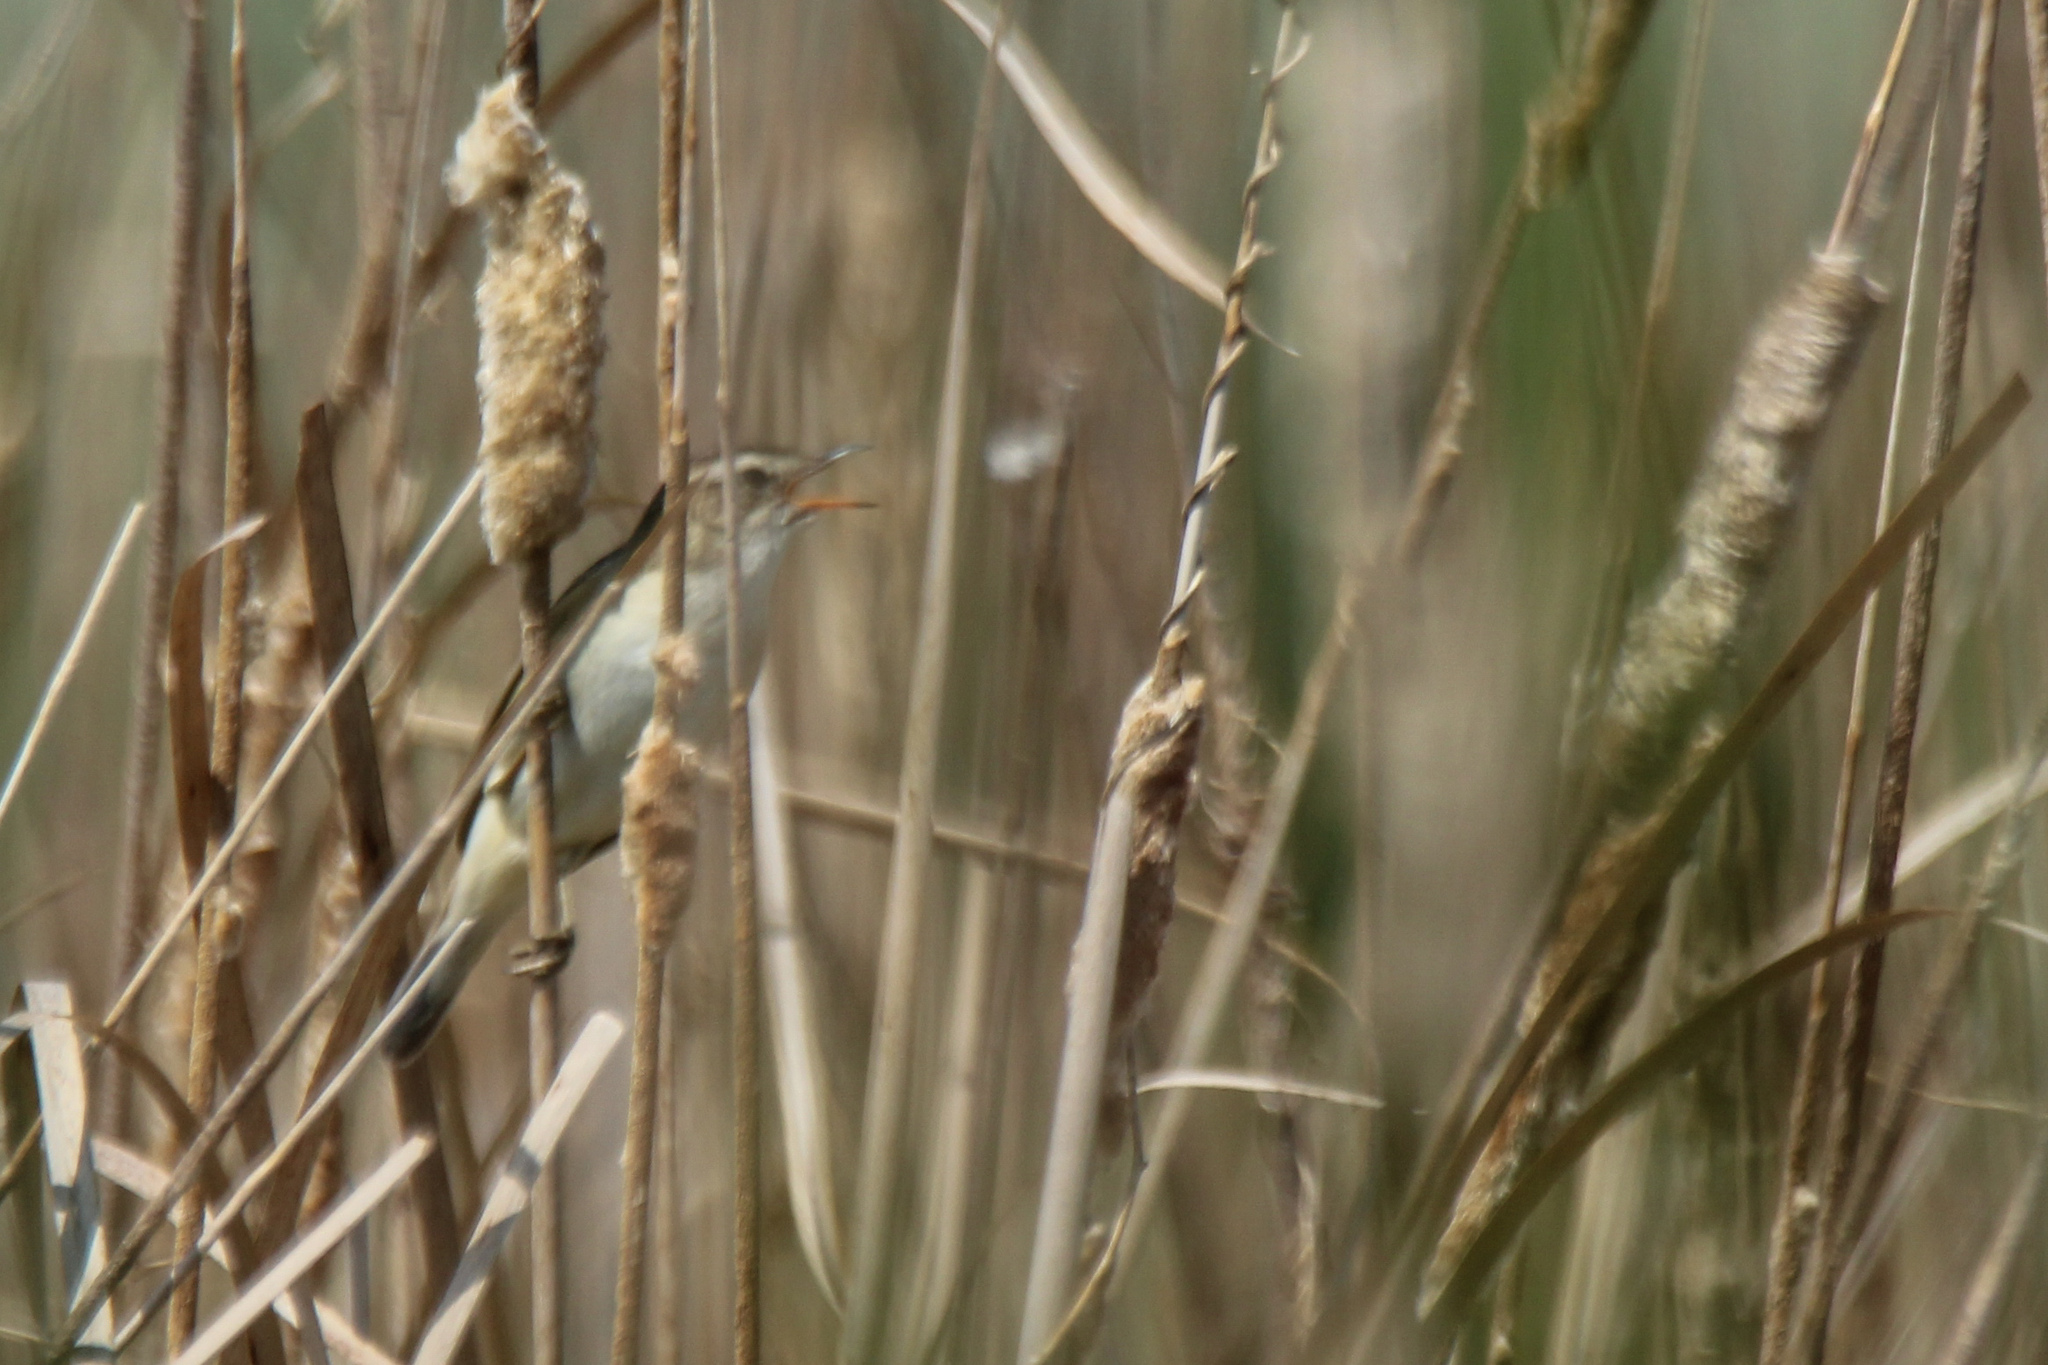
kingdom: Animalia
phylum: Chordata
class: Aves
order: Passeriformes
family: Acrocephalidae
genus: Acrocephalus
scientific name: Acrocephalus schoenobaenus
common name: Sedge warbler
